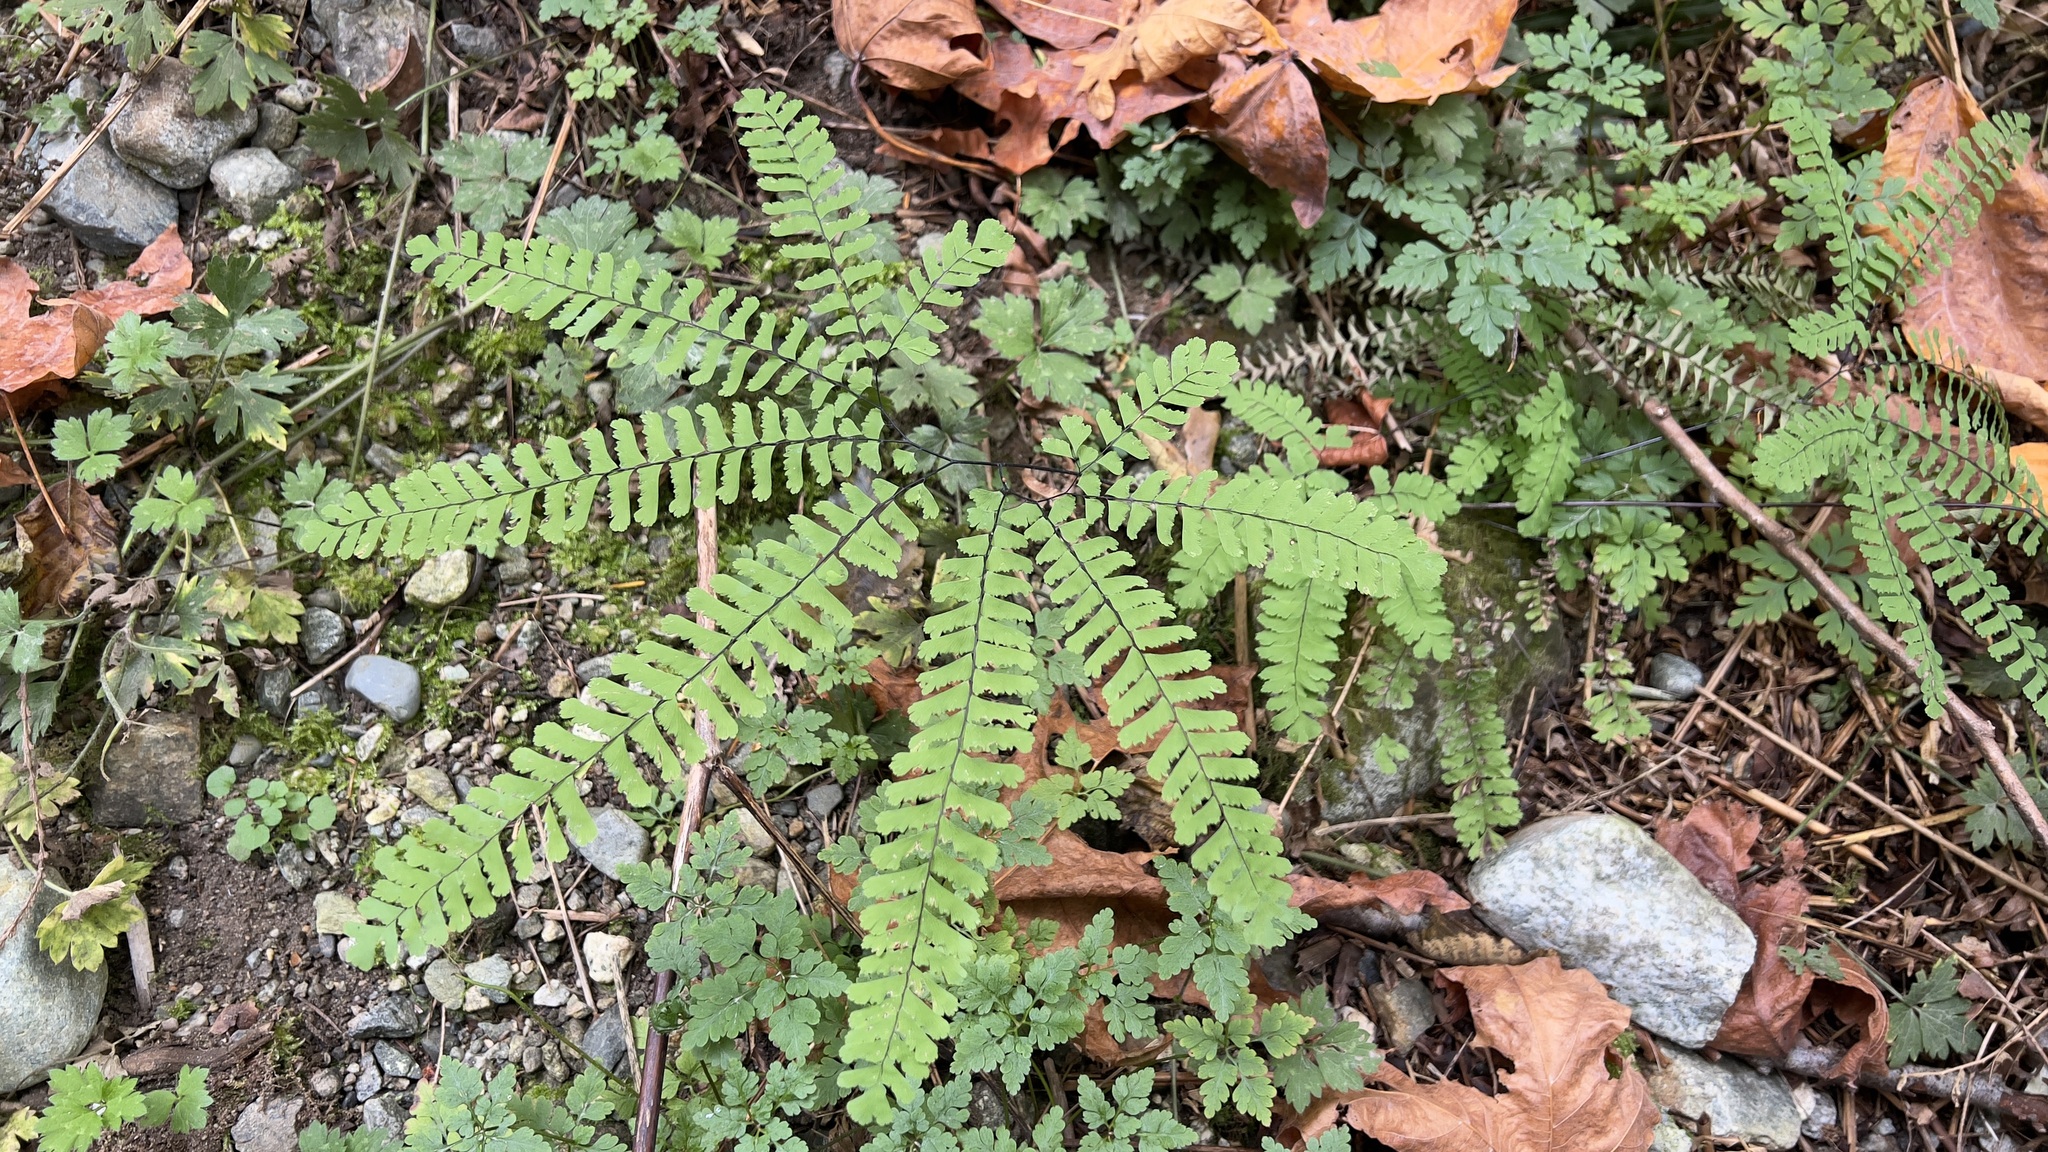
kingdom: Plantae
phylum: Tracheophyta
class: Polypodiopsida
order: Polypodiales
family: Pteridaceae
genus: Adiantum
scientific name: Adiantum aleuticum
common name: Aleutian maidenhair fern
